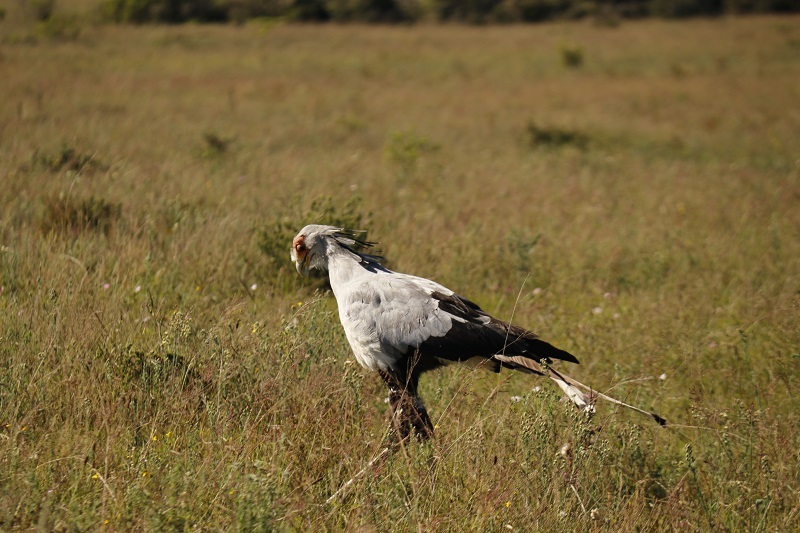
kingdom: Animalia
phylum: Chordata
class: Aves
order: Accipitriformes
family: Sagittariidae
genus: Sagittarius
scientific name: Sagittarius serpentarius
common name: Secretarybird
